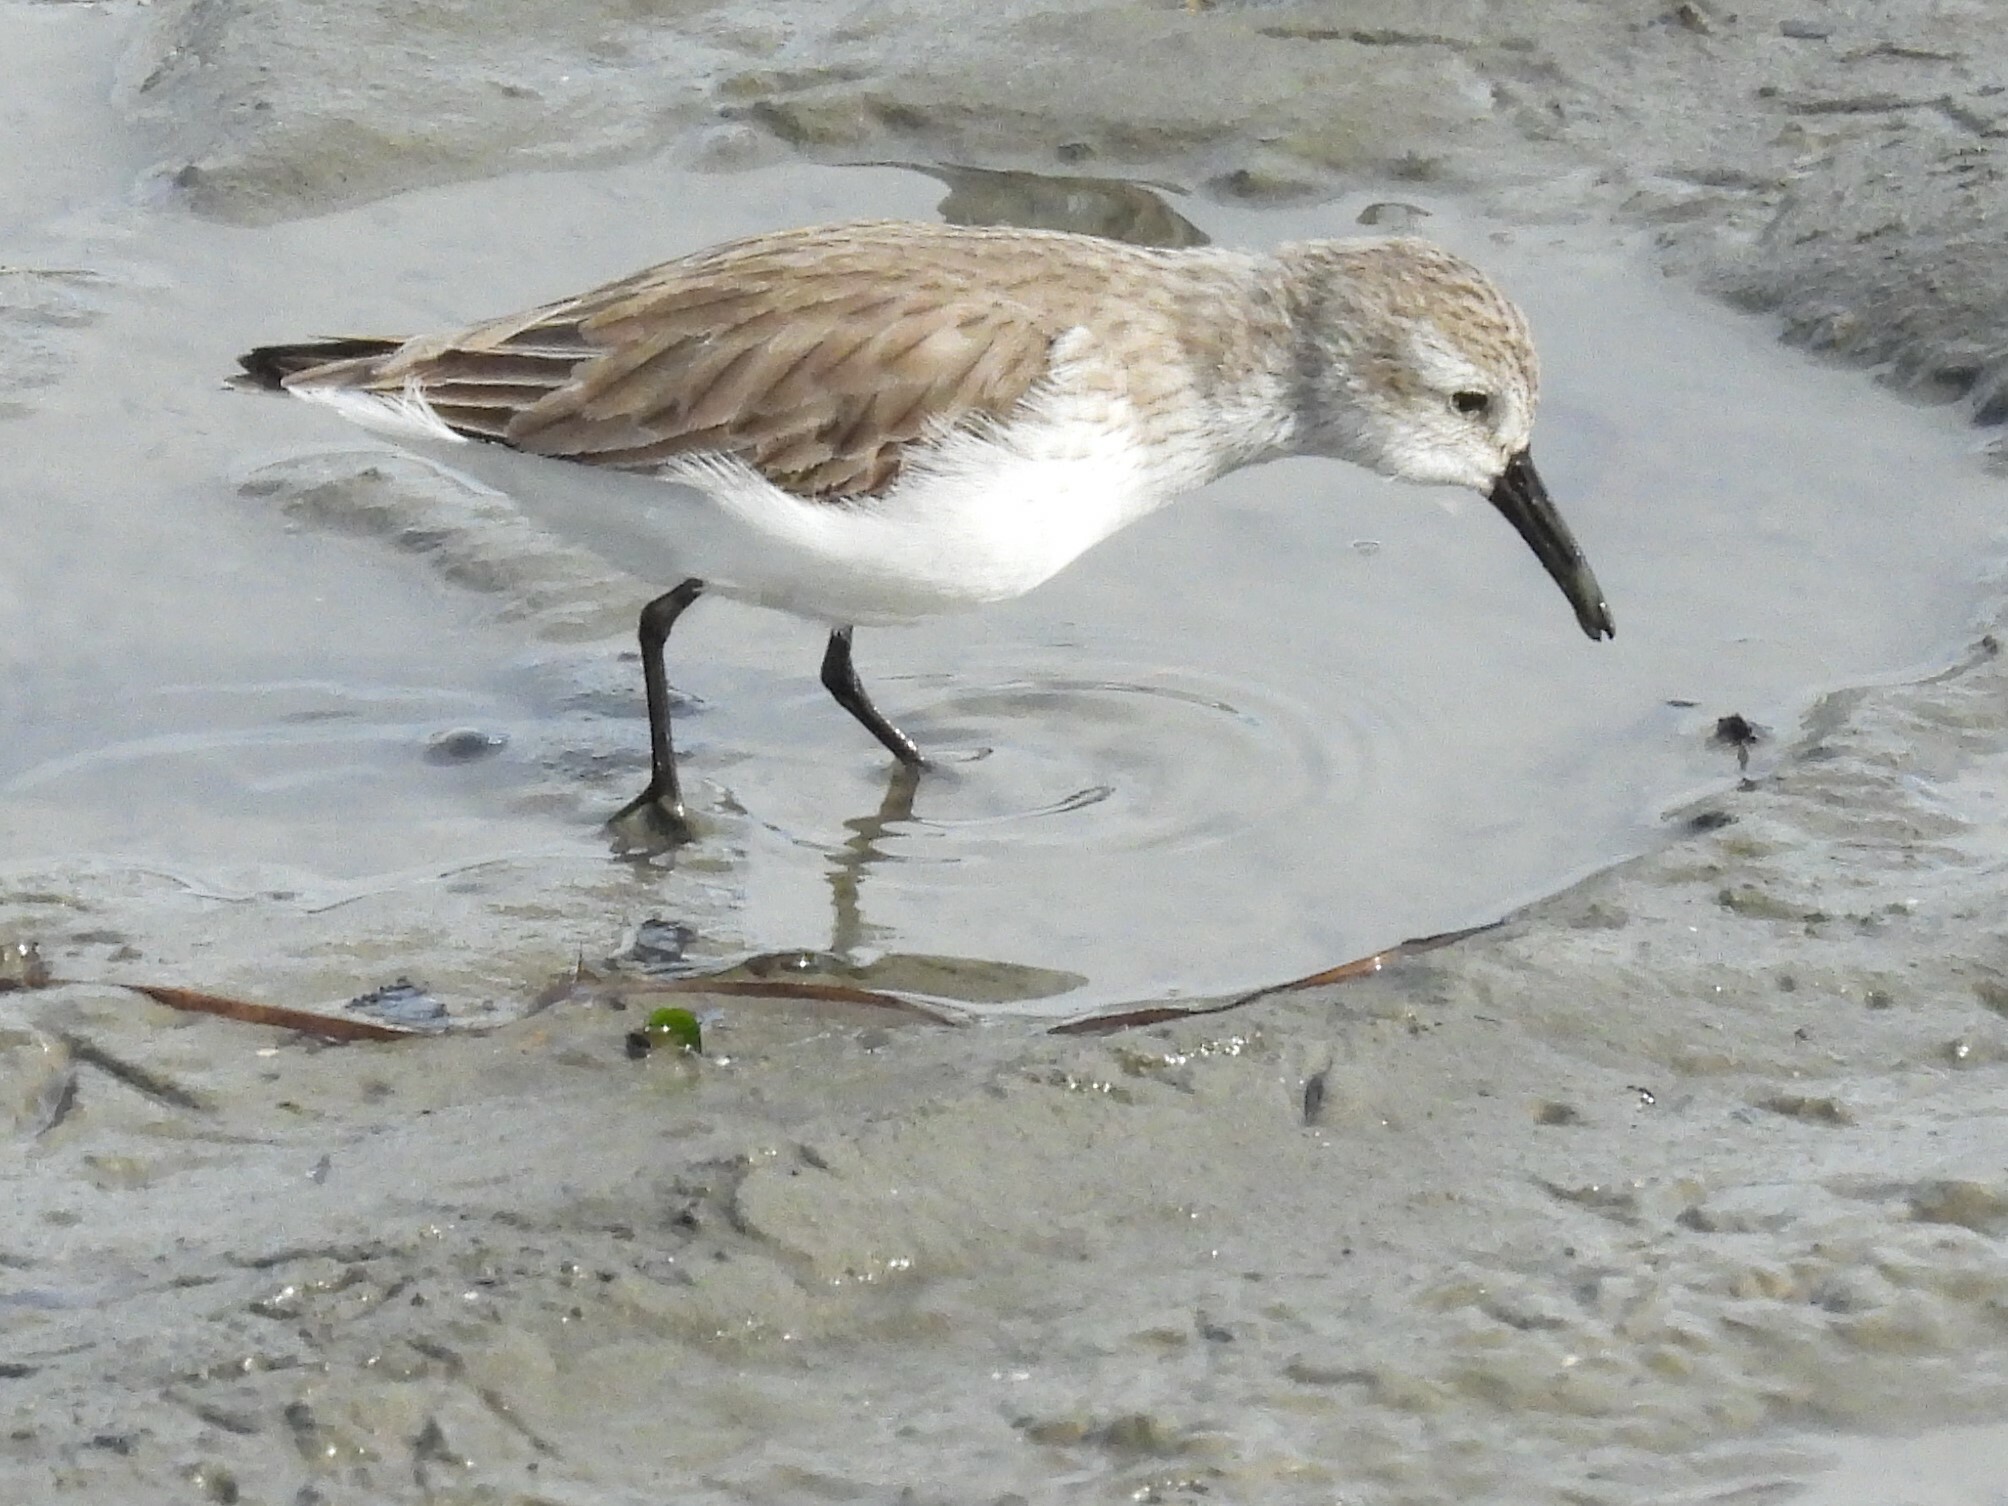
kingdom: Animalia
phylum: Chordata
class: Aves
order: Charadriiformes
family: Scolopacidae
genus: Calidris
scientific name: Calidris mauri
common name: Western sandpiper
